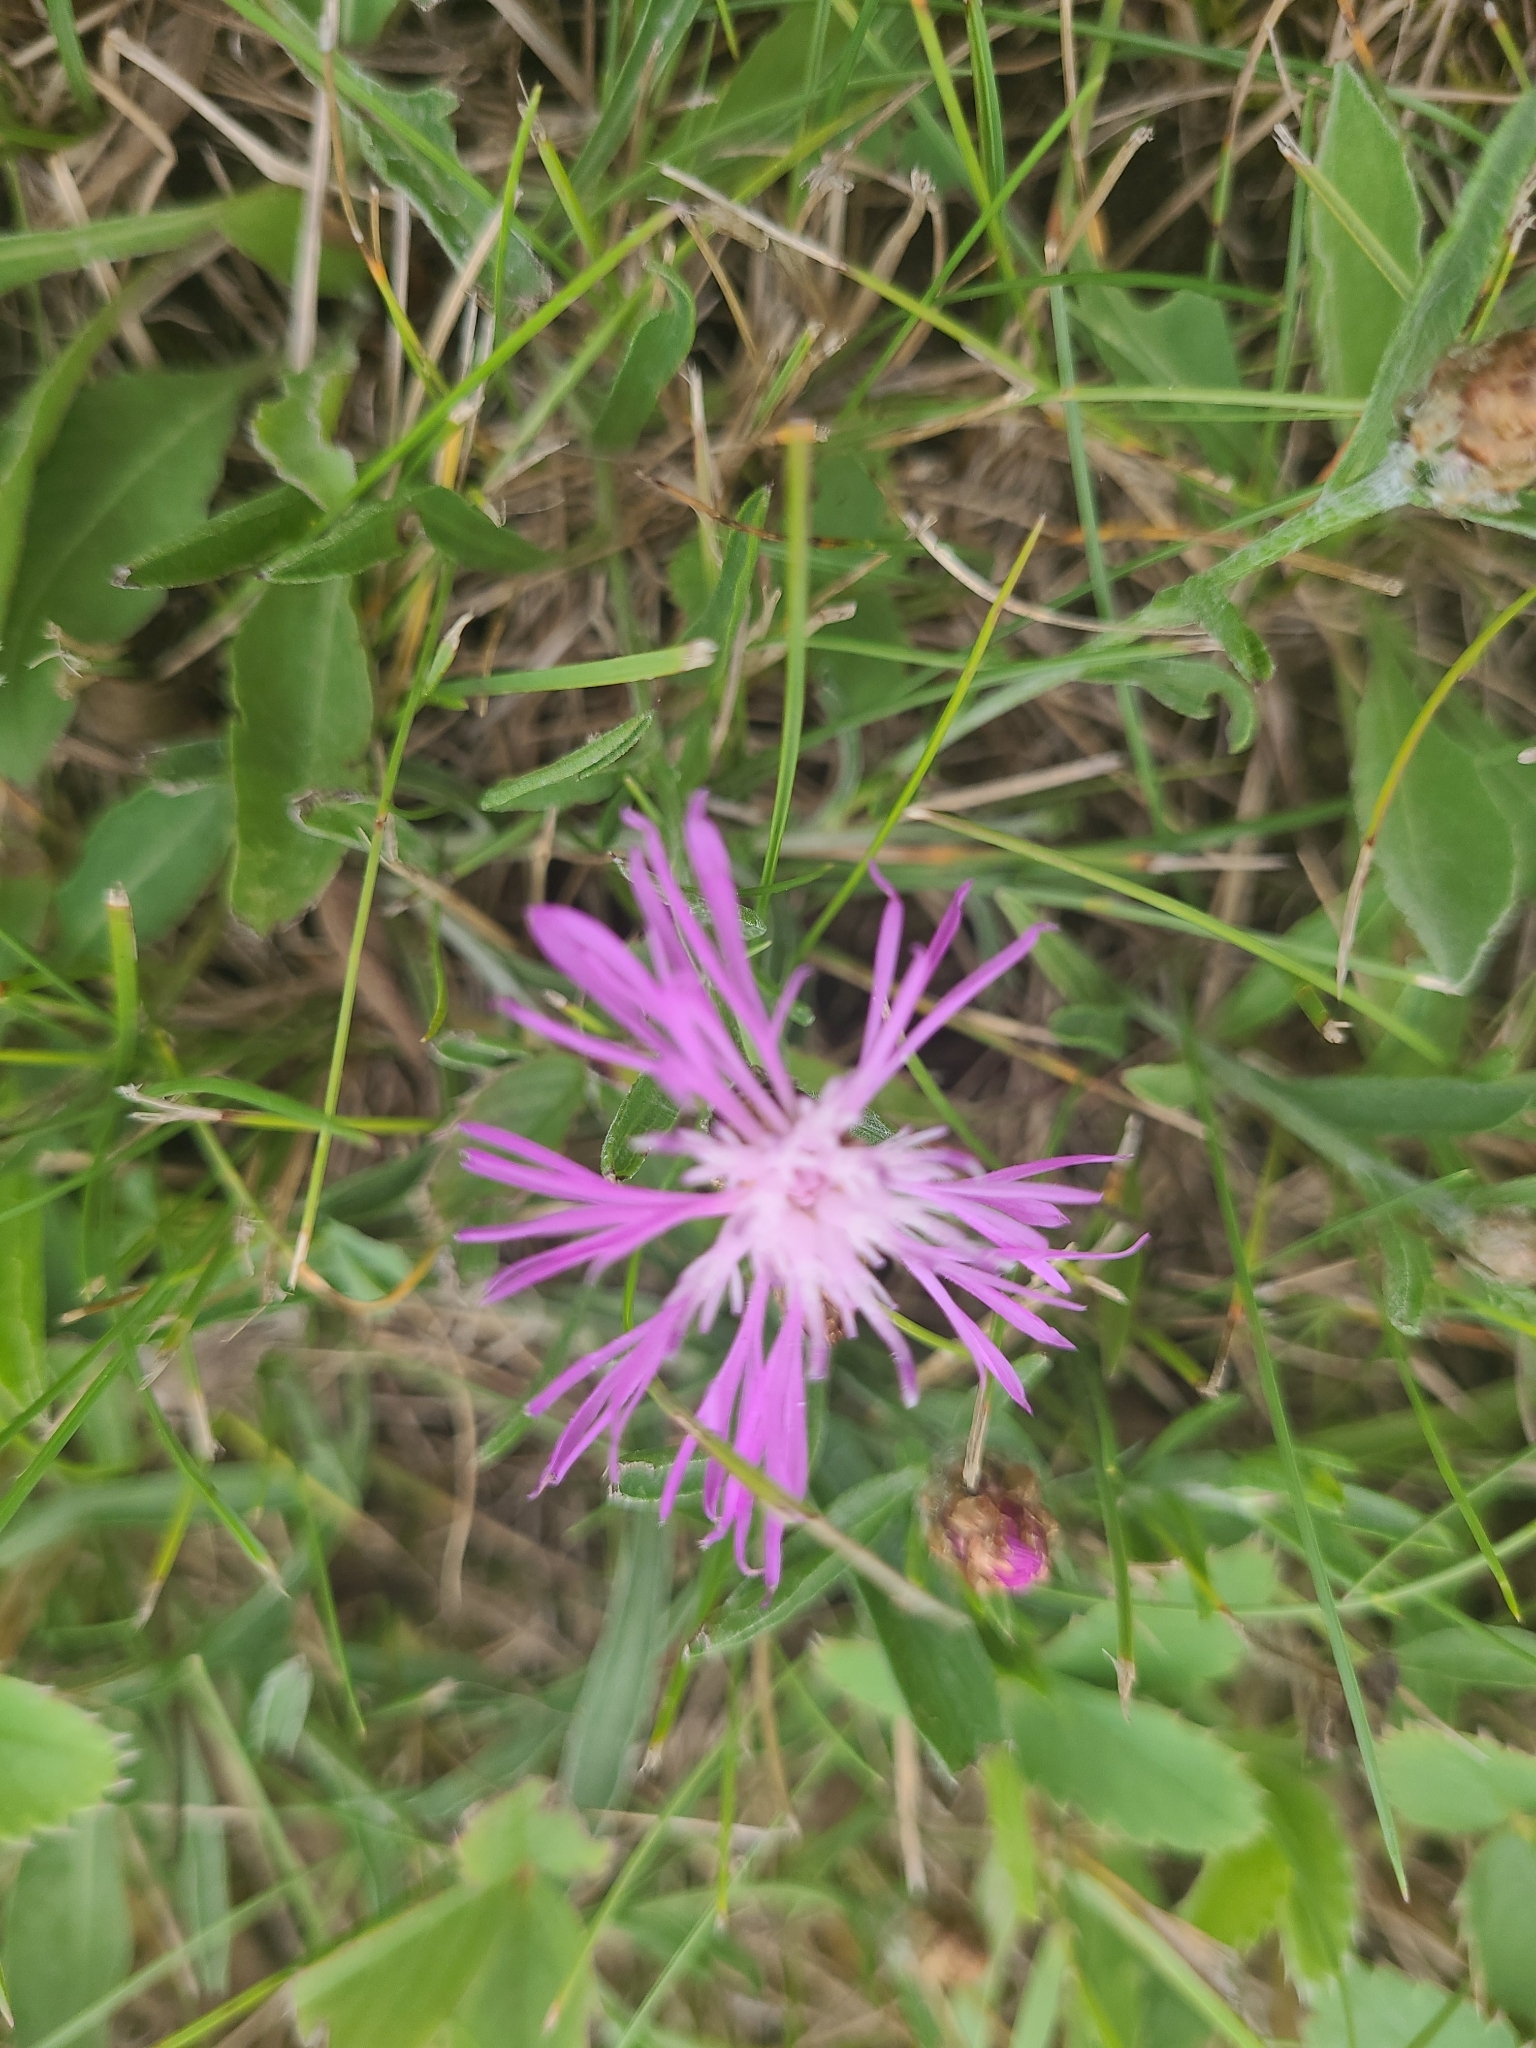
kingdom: Plantae
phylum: Tracheophyta
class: Magnoliopsida
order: Asterales
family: Asteraceae
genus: Centaurea
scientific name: Centaurea stoebe
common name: Spotted knapweed
